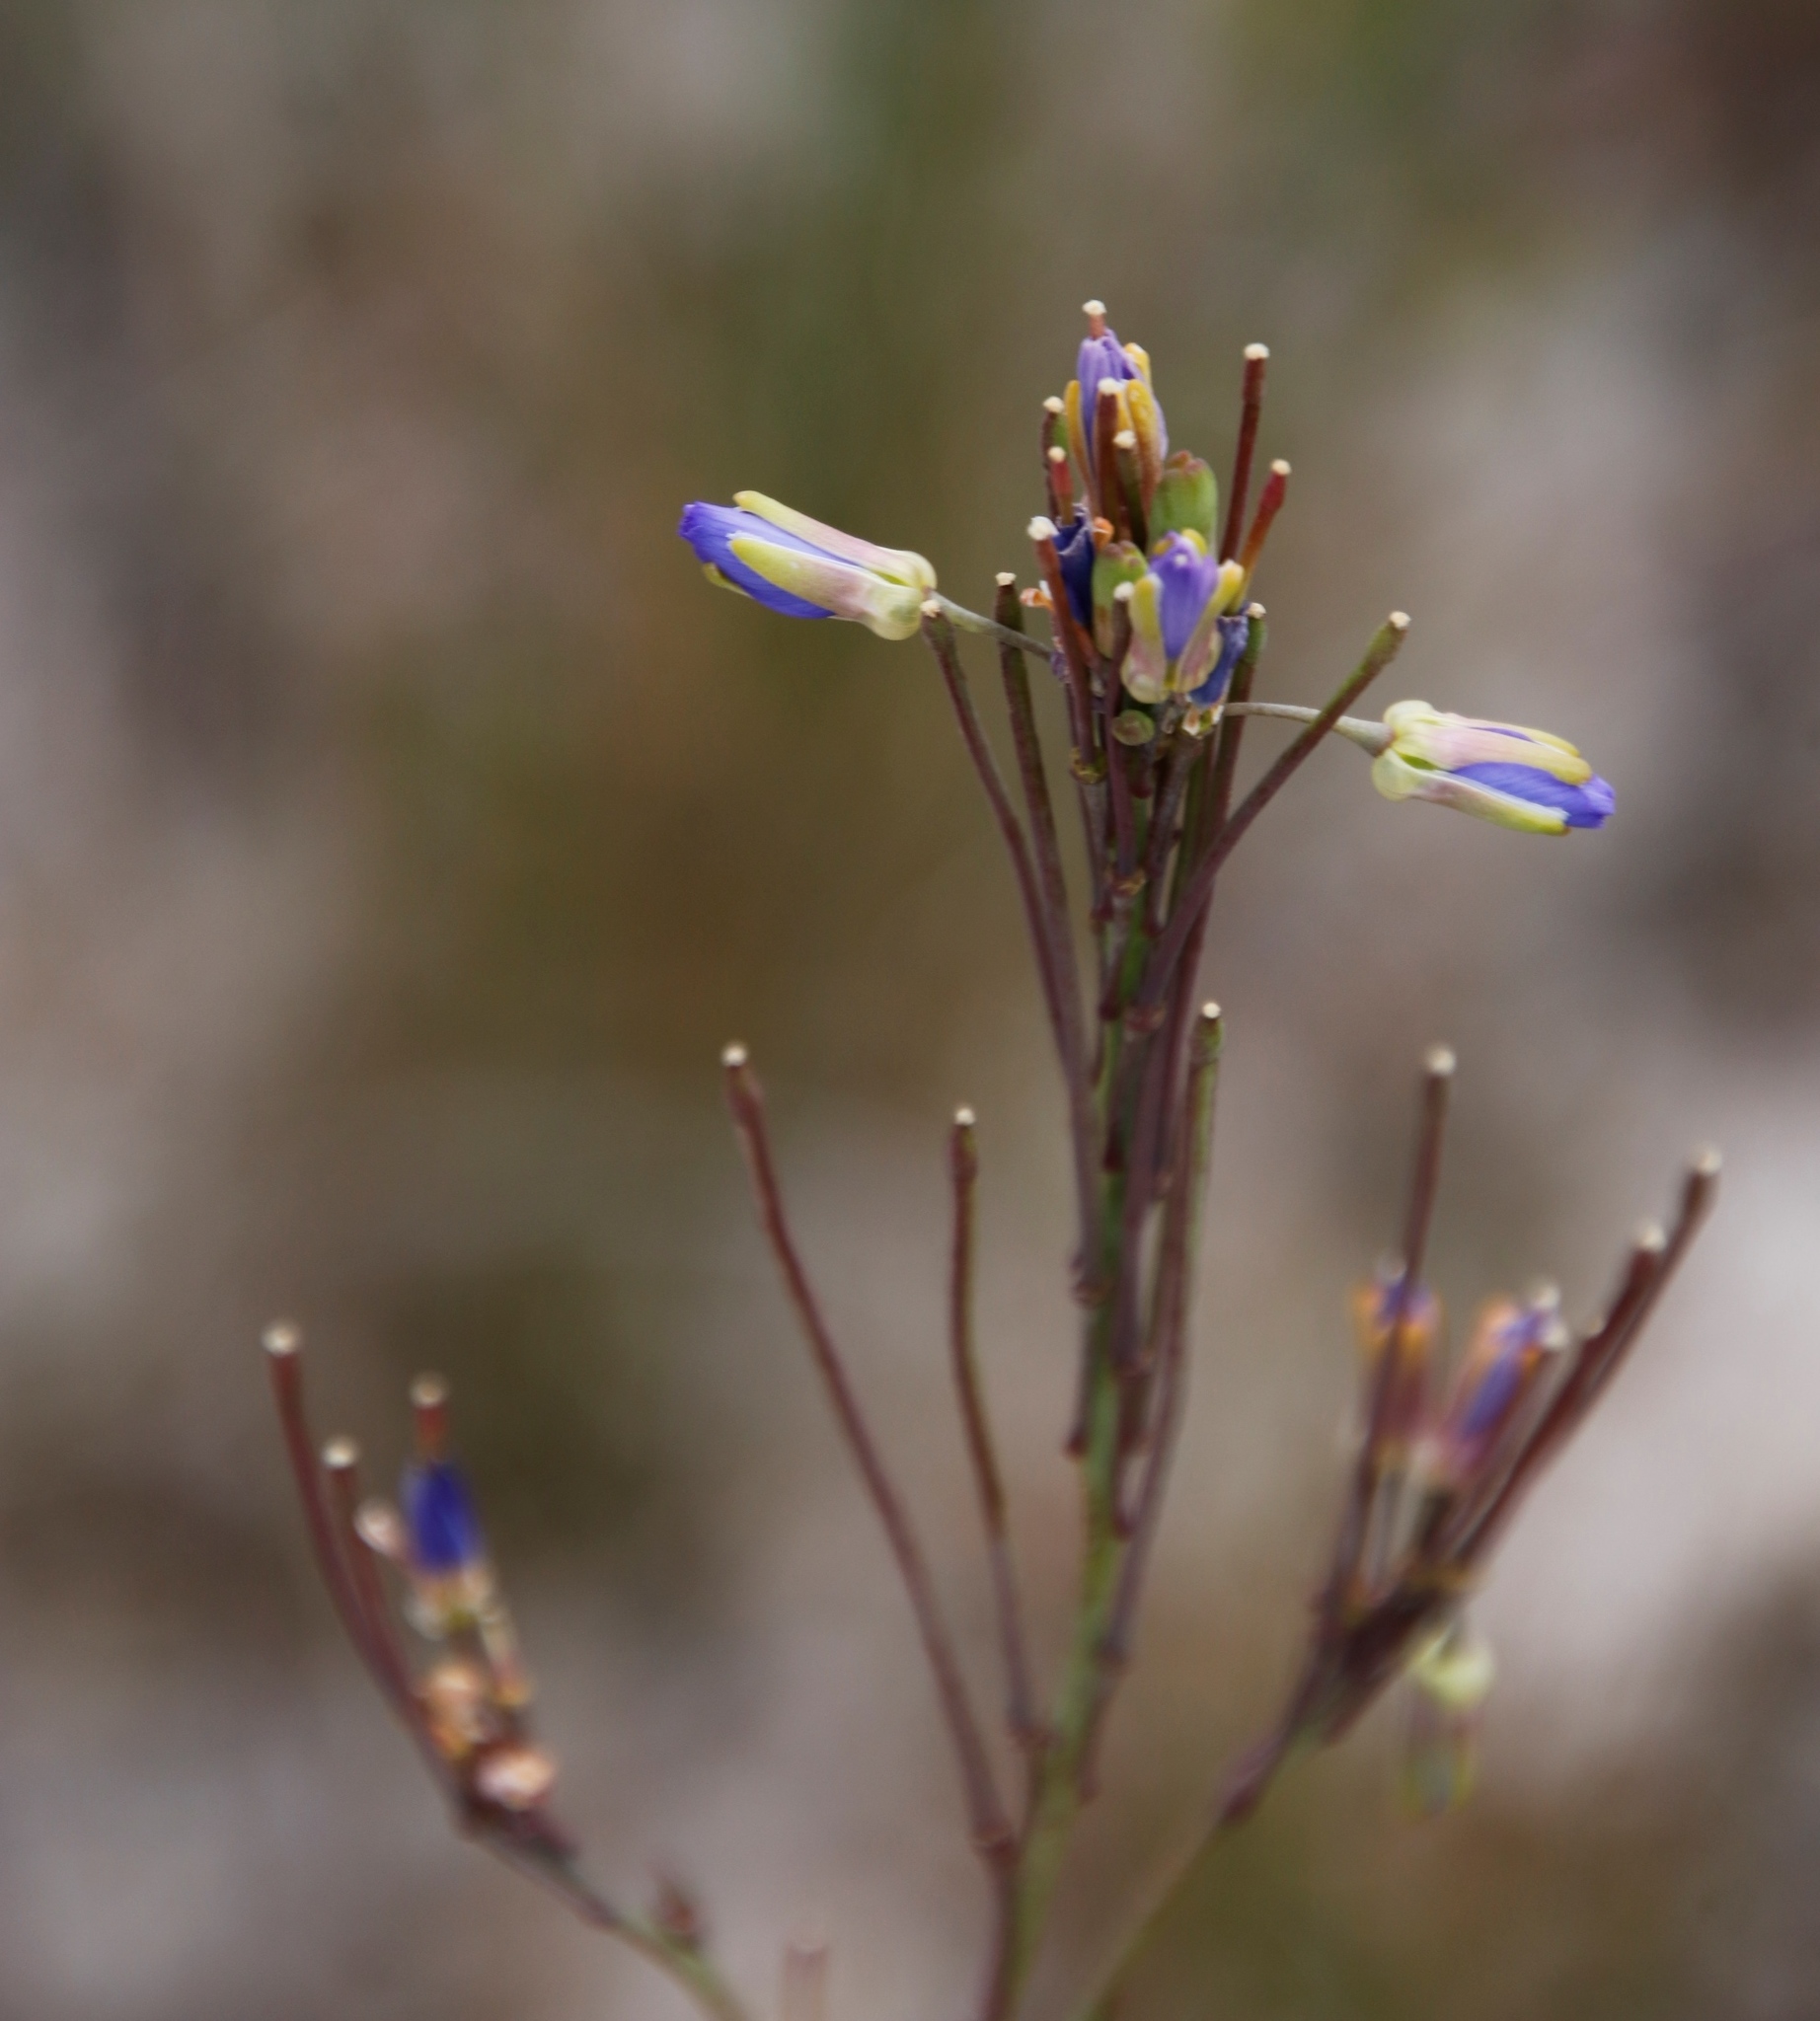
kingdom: Plantae
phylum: Tracheophyta
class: Magnoliopsida
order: Brassicales
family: Brassicaceae
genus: Heliophila
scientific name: Heliophila linearis
